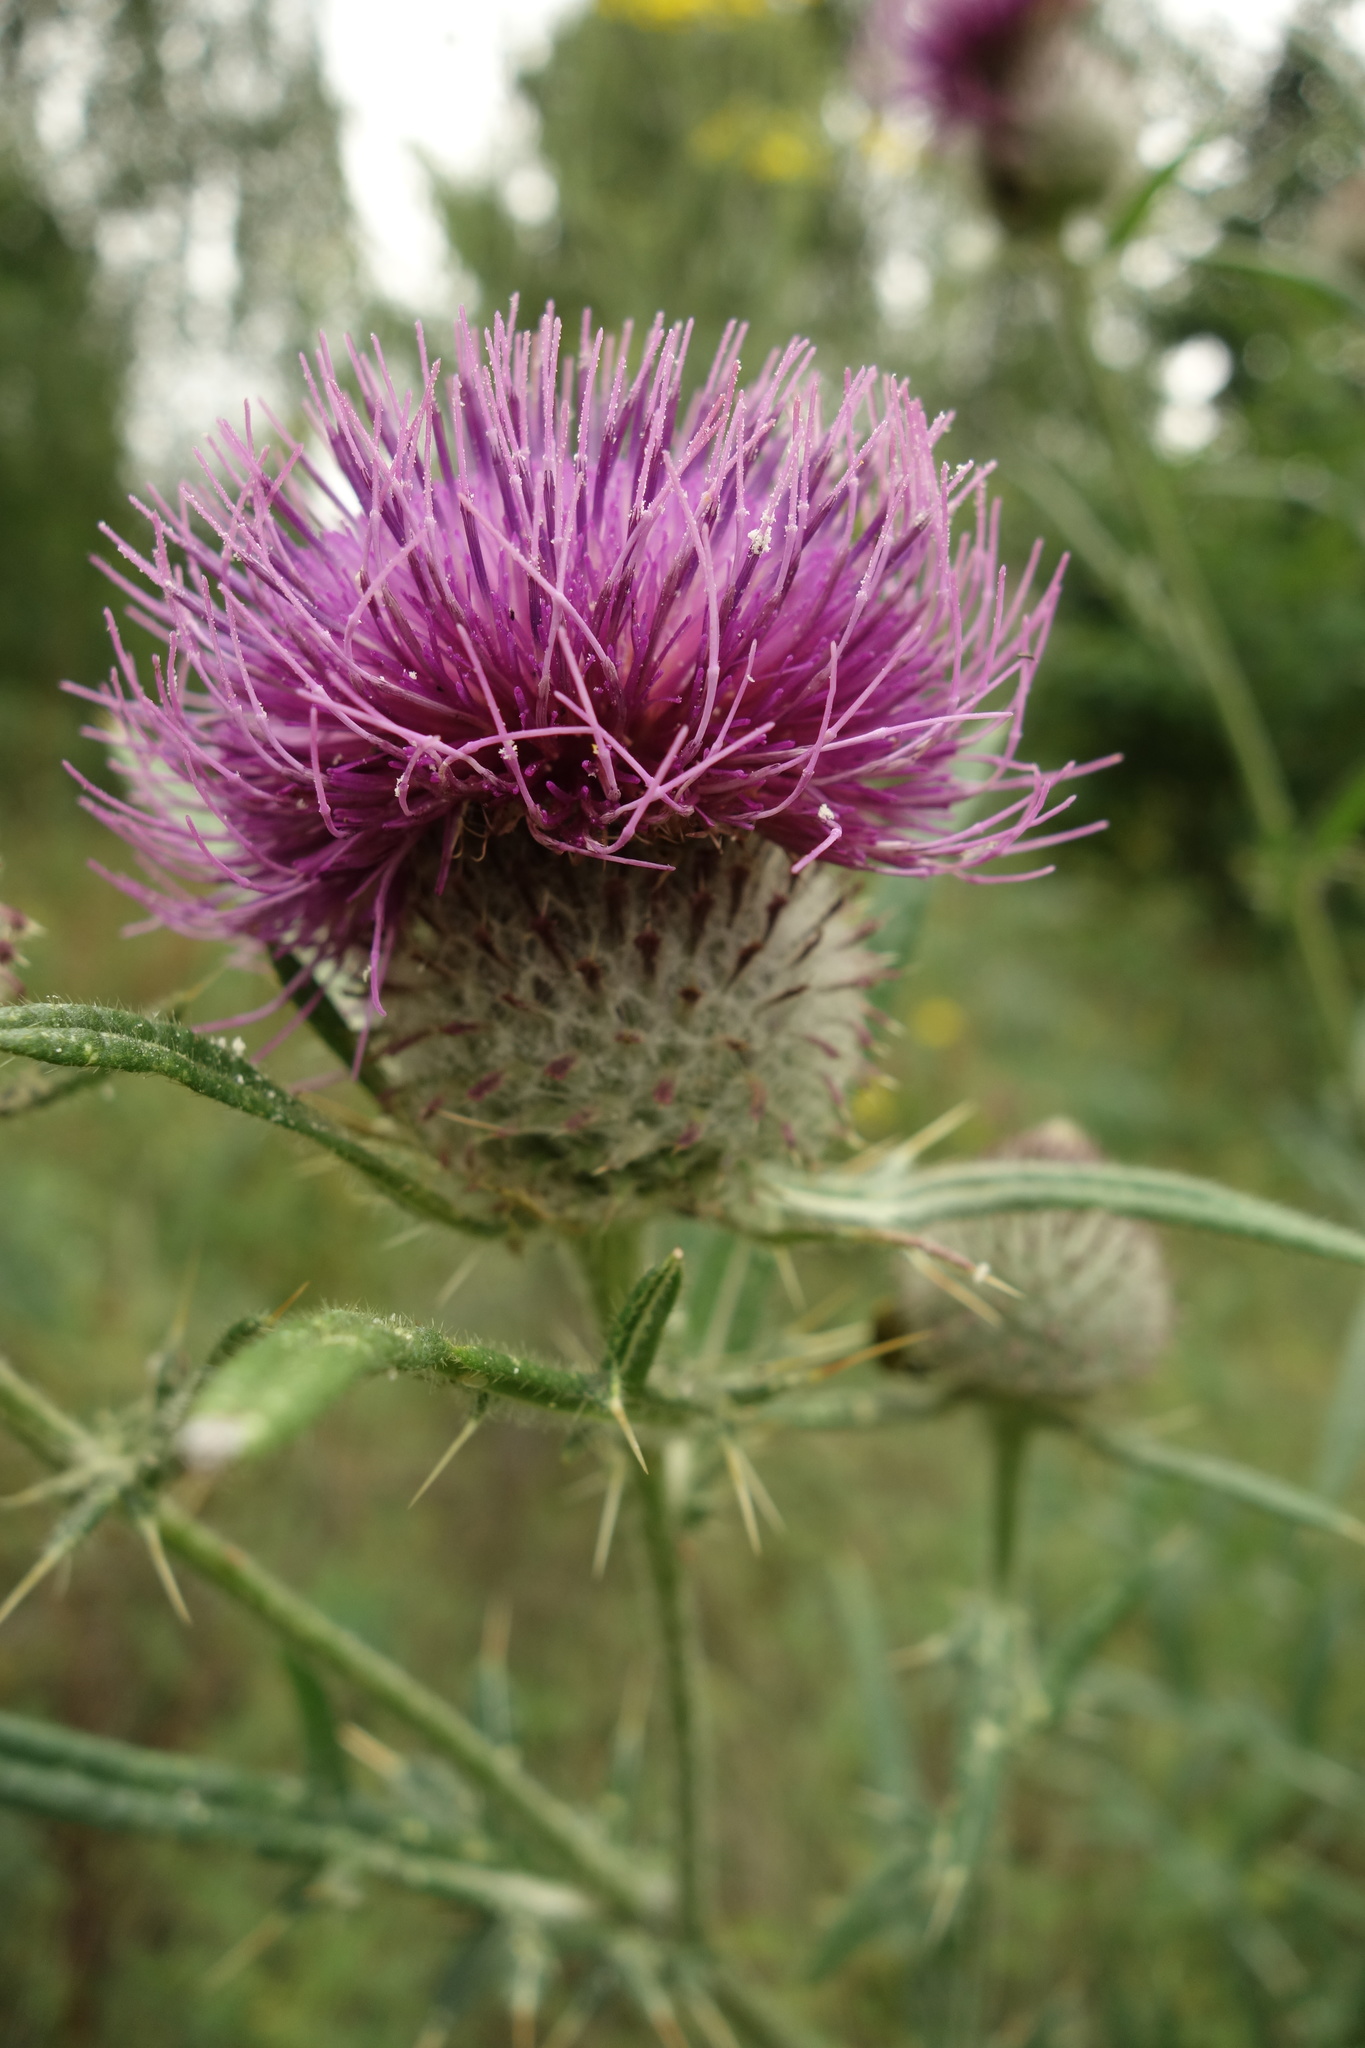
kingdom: Plantae
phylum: Tracheophyta
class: Magnoliopsida
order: Asterales
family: Asteraceae
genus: Lophiolepis
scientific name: Lophiolepis decussata
